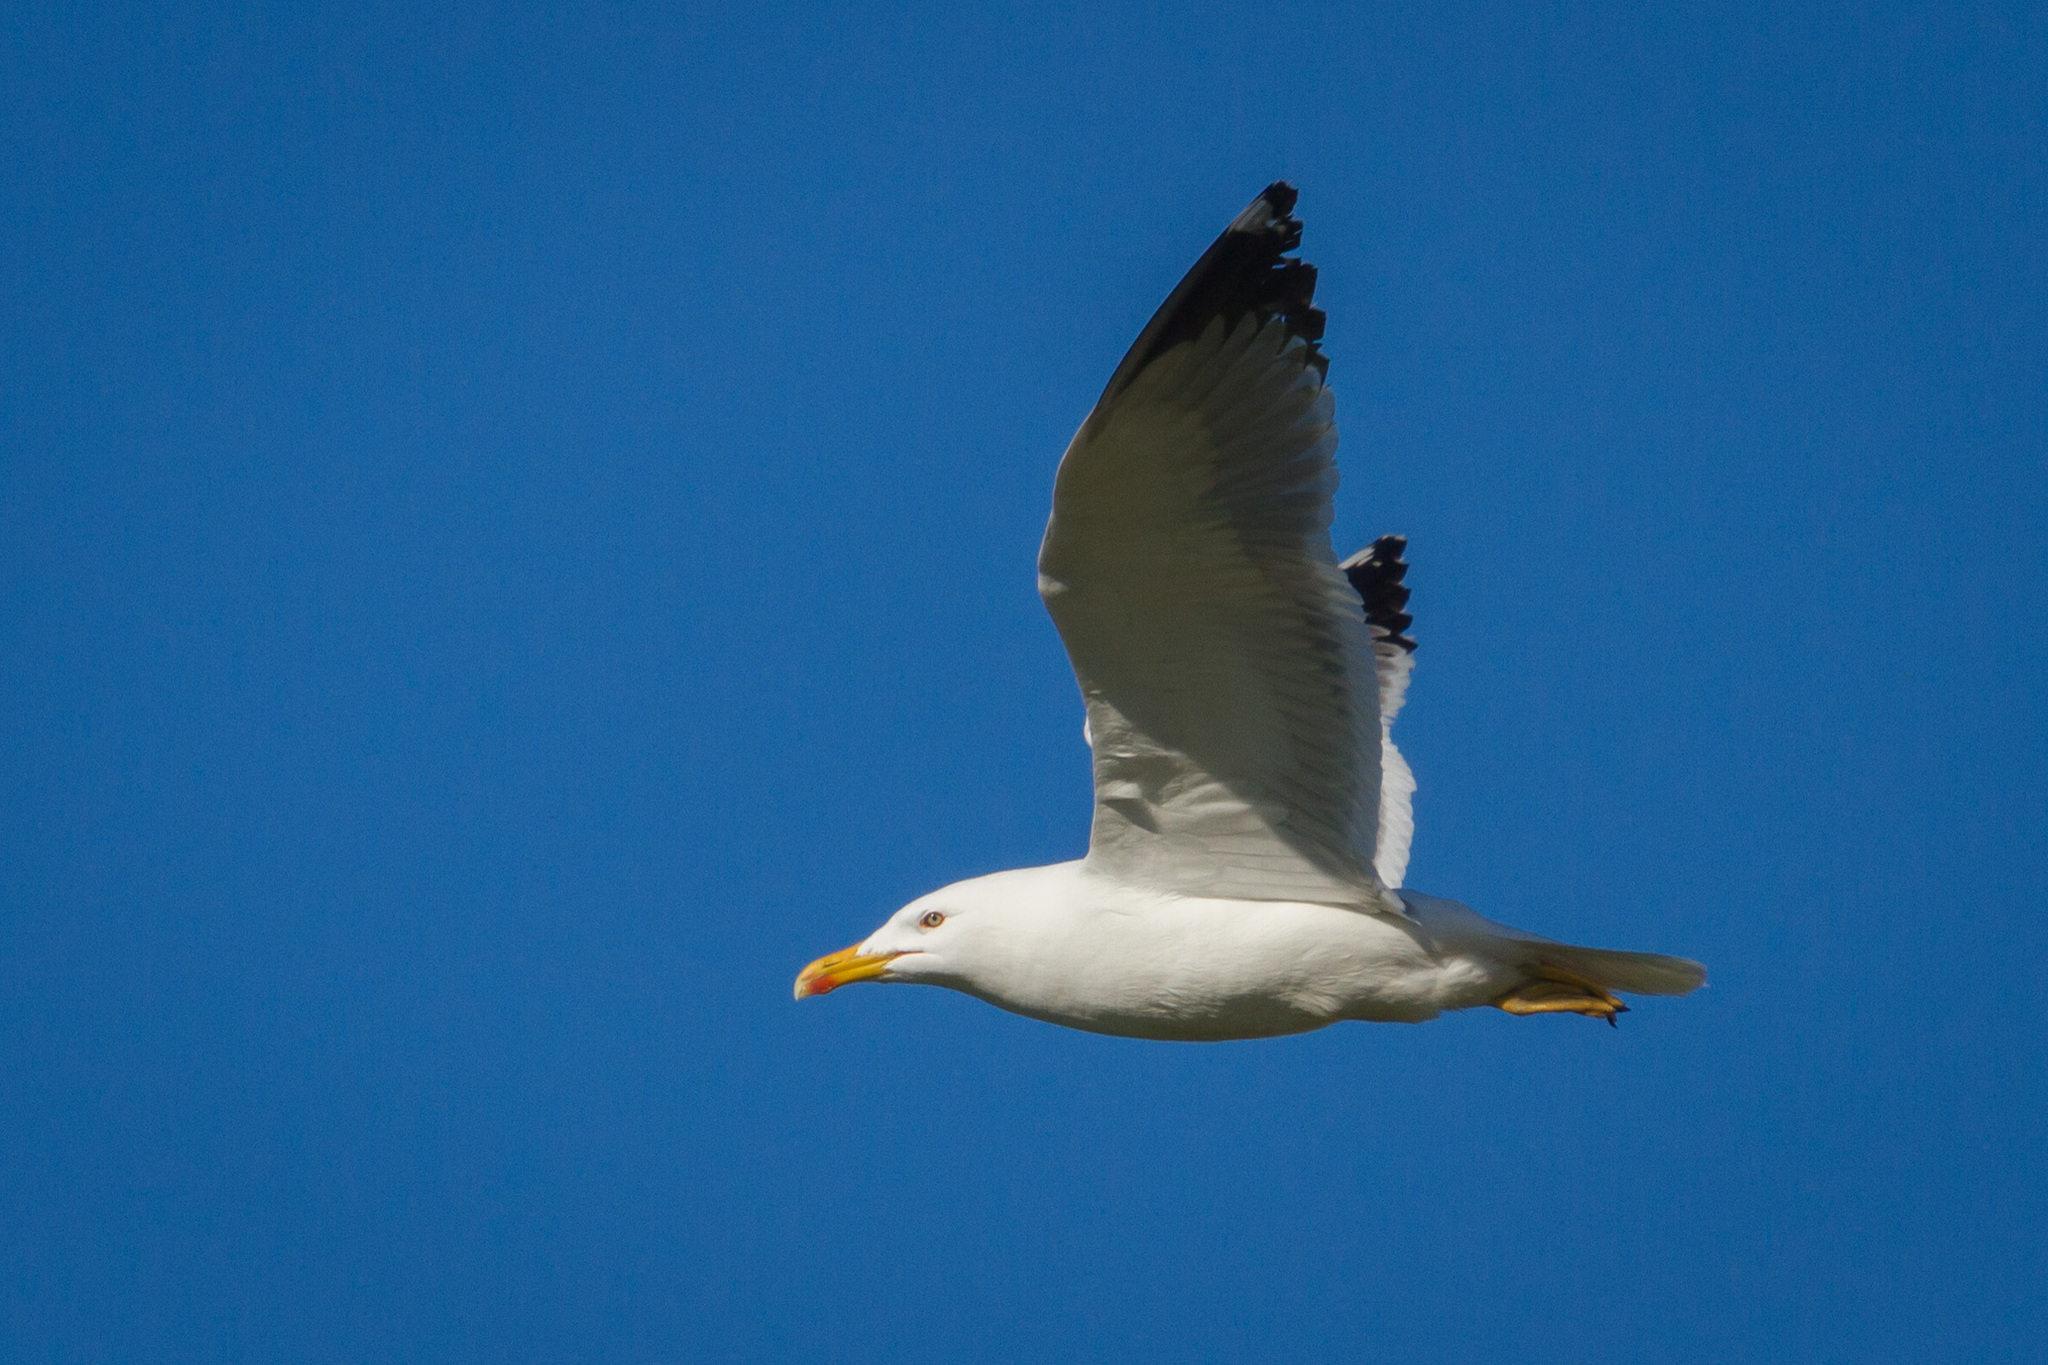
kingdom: Animalia
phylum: Chordata
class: Aves
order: Charadriiformes
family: Laridae
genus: Larus
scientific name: Larus fuscus
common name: Lesser black-backed gull
